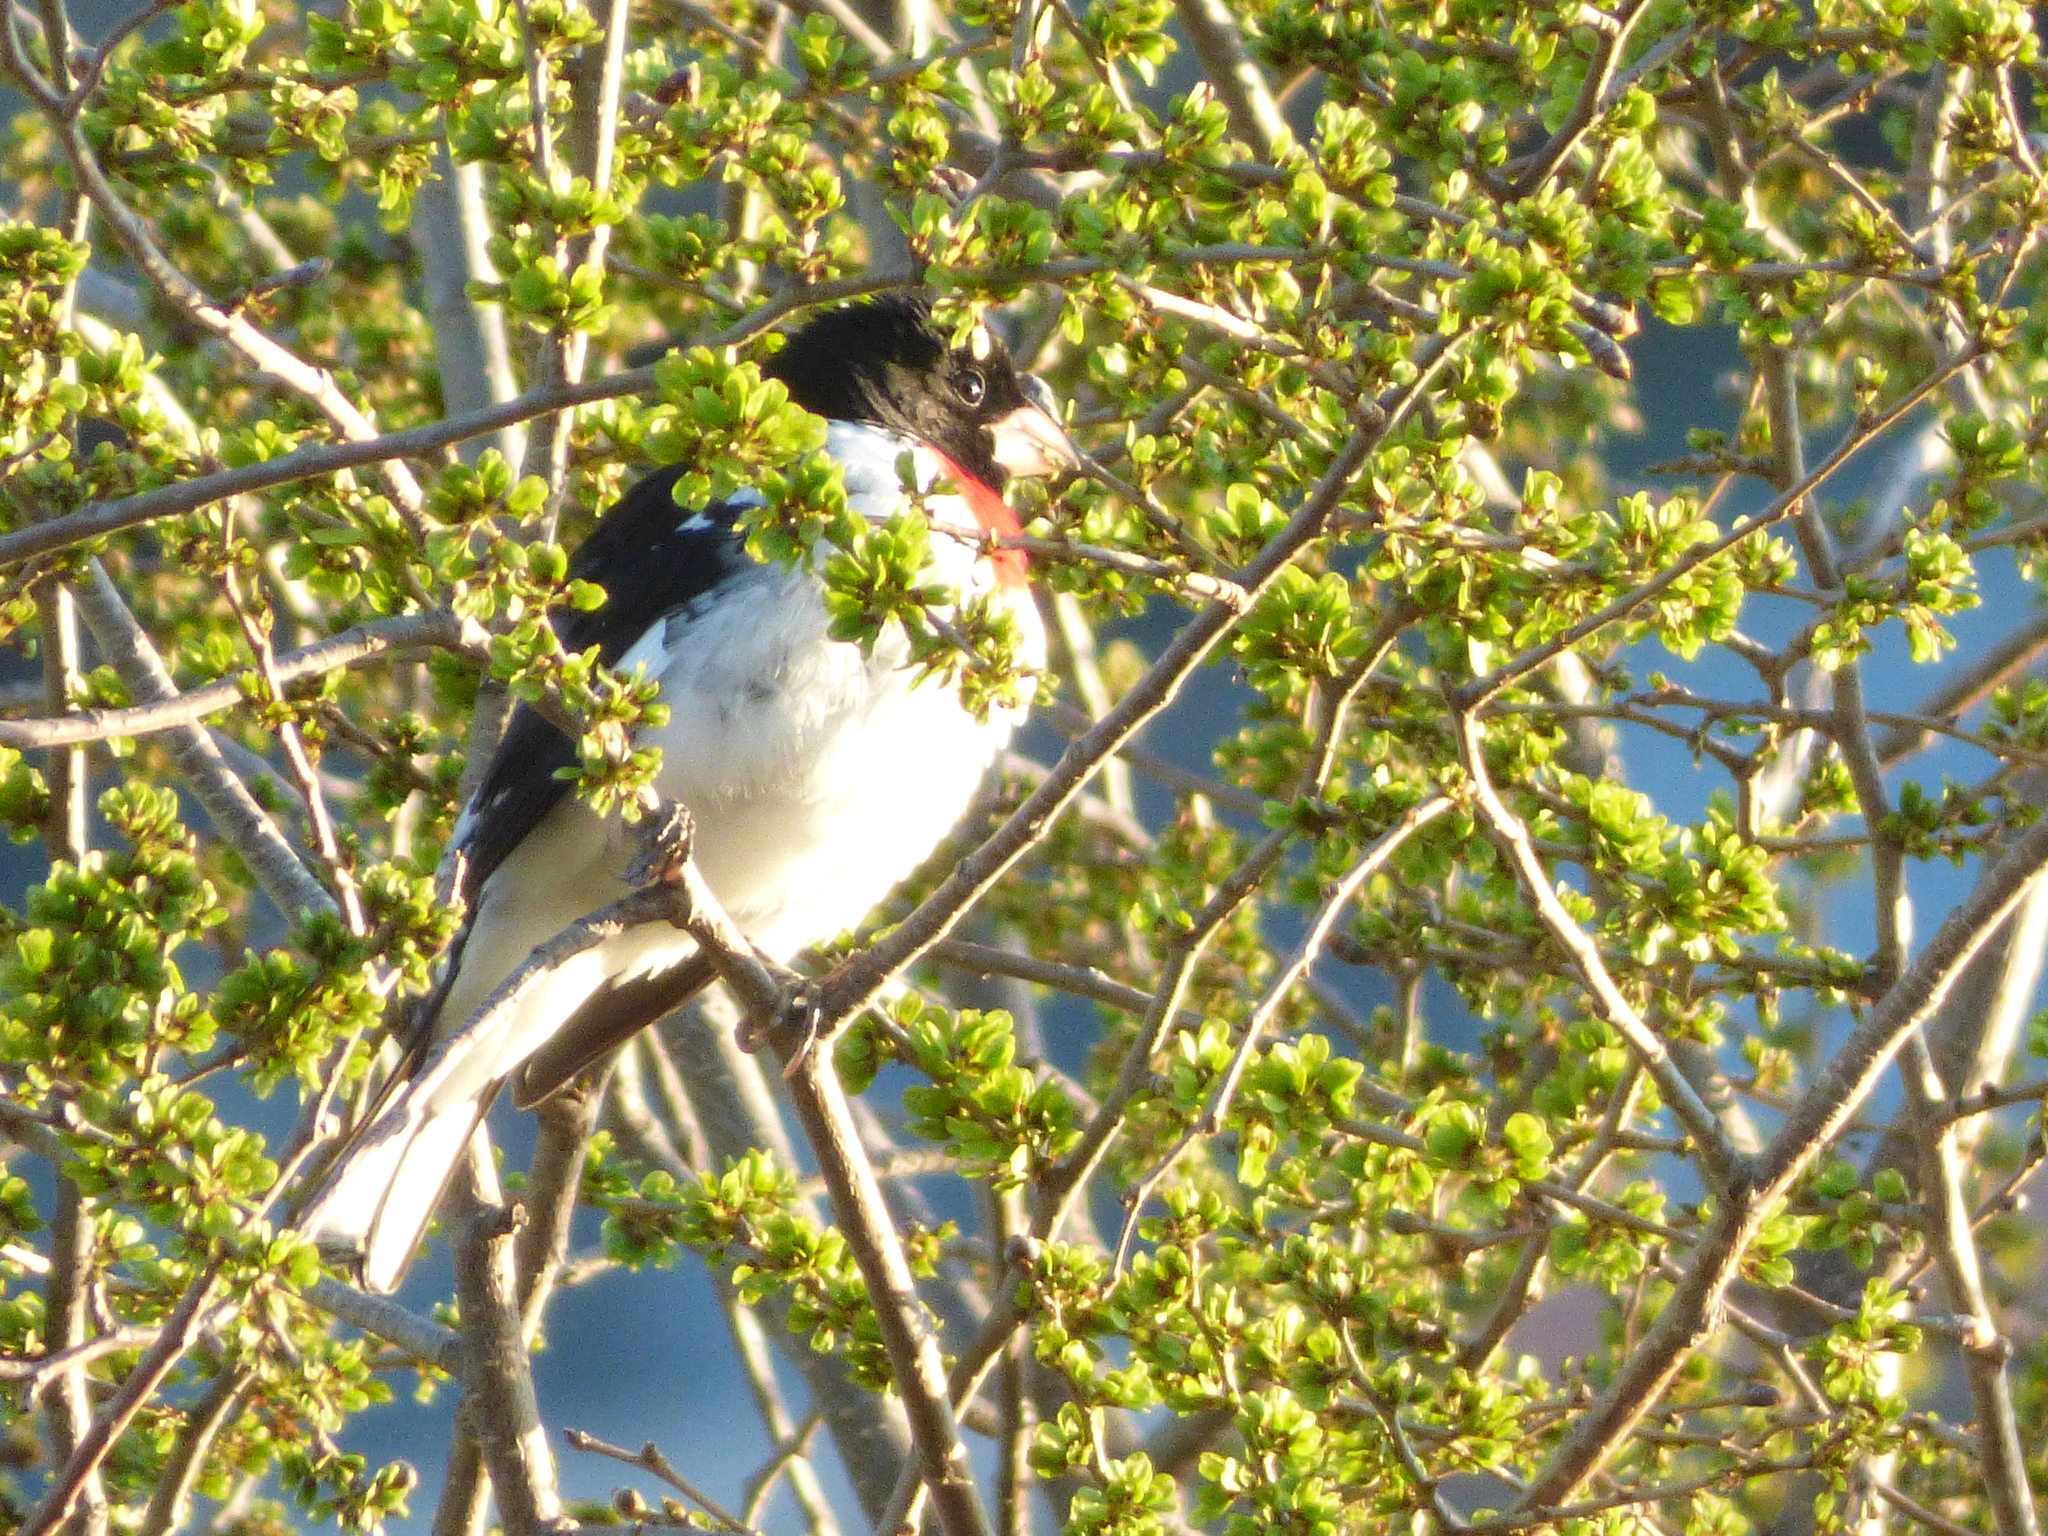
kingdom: Animalia
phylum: Chordata
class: Aves
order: Passeriformes
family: Cardinalidae
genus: Pheucticus
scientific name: Pheucticus ludovicianus
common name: Rose-breasted grosbeak
